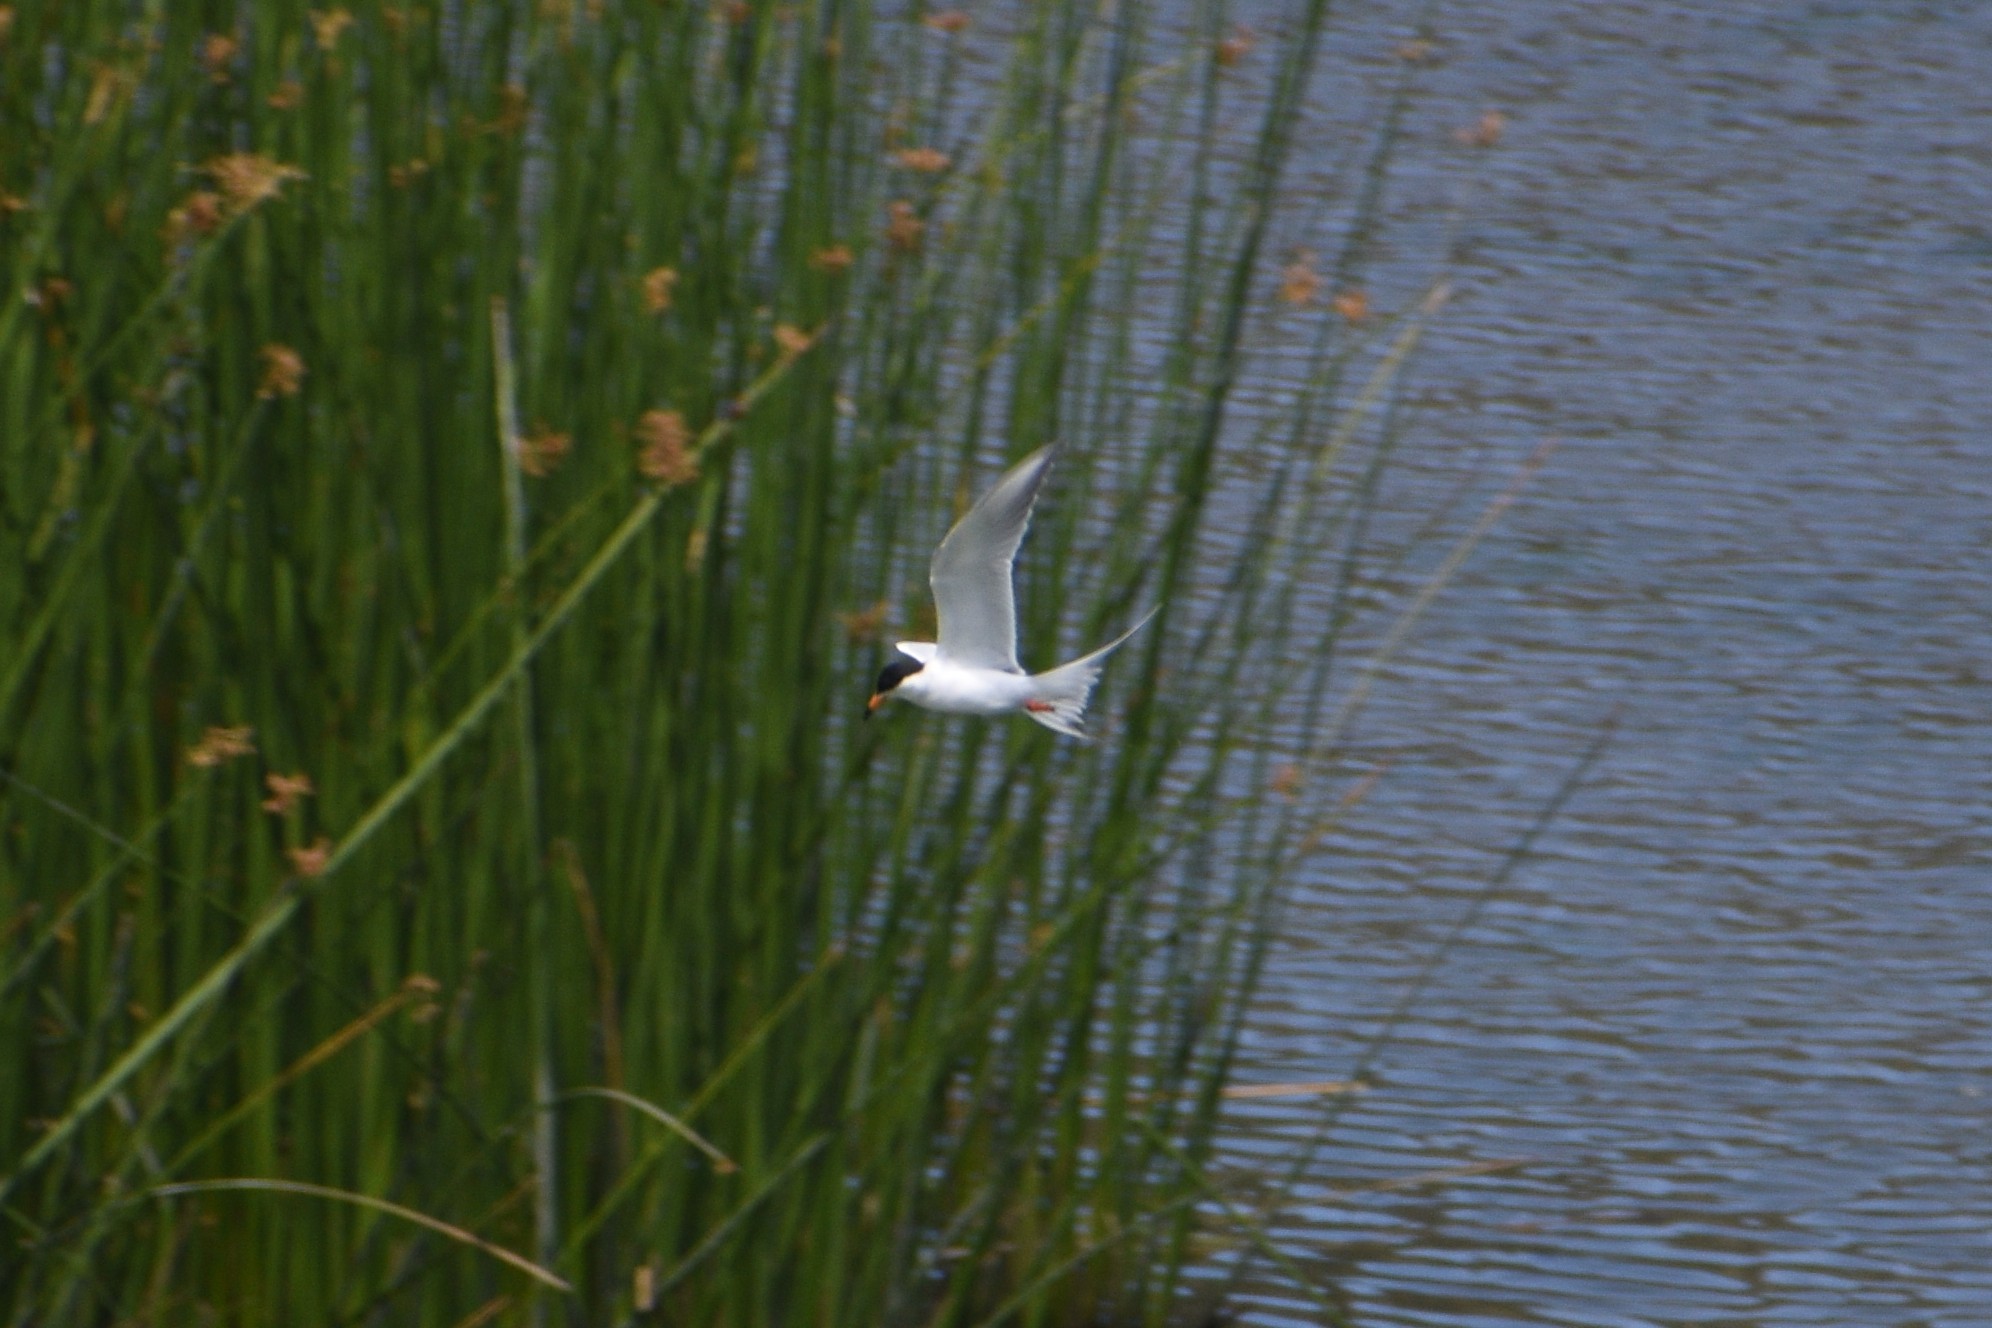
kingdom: Animalia
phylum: Chordata
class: Aves
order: Charadriiformes
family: Laridae
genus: Sterna
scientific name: Sterna forsteri
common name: Forster's tern
